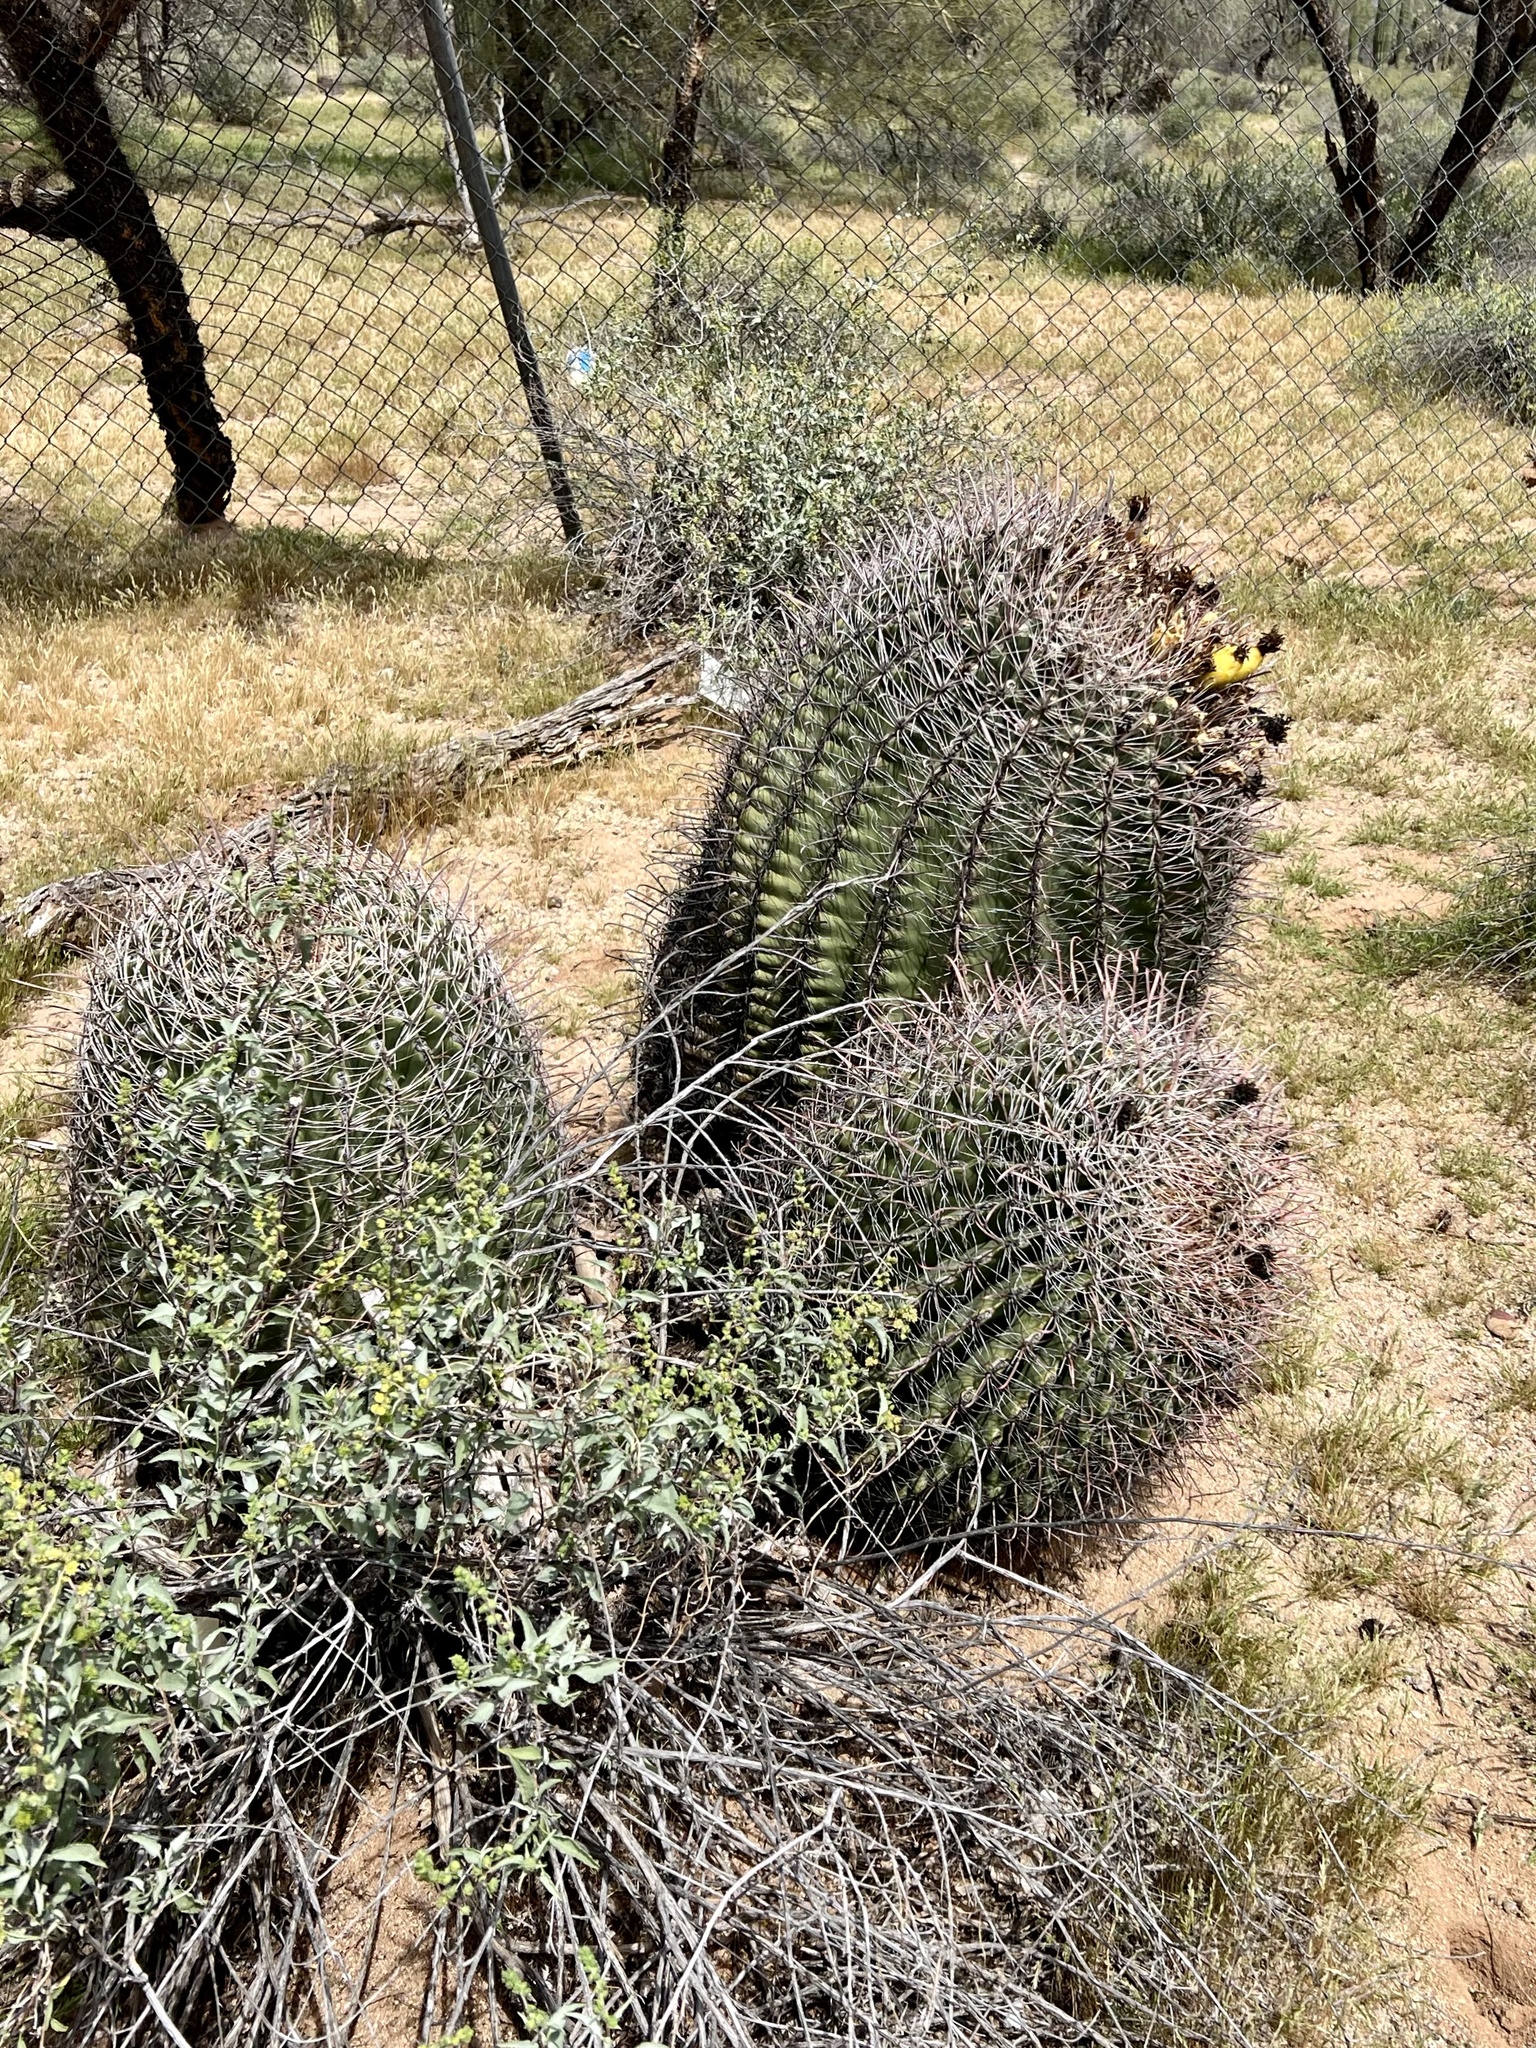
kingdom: Plantae
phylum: Tracheophyta
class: Magnoliopsida
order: Caryophyllales
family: Cactaceae
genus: Ferocactus
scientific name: Ferocactus wislizeni
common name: Candy barrel cactus
